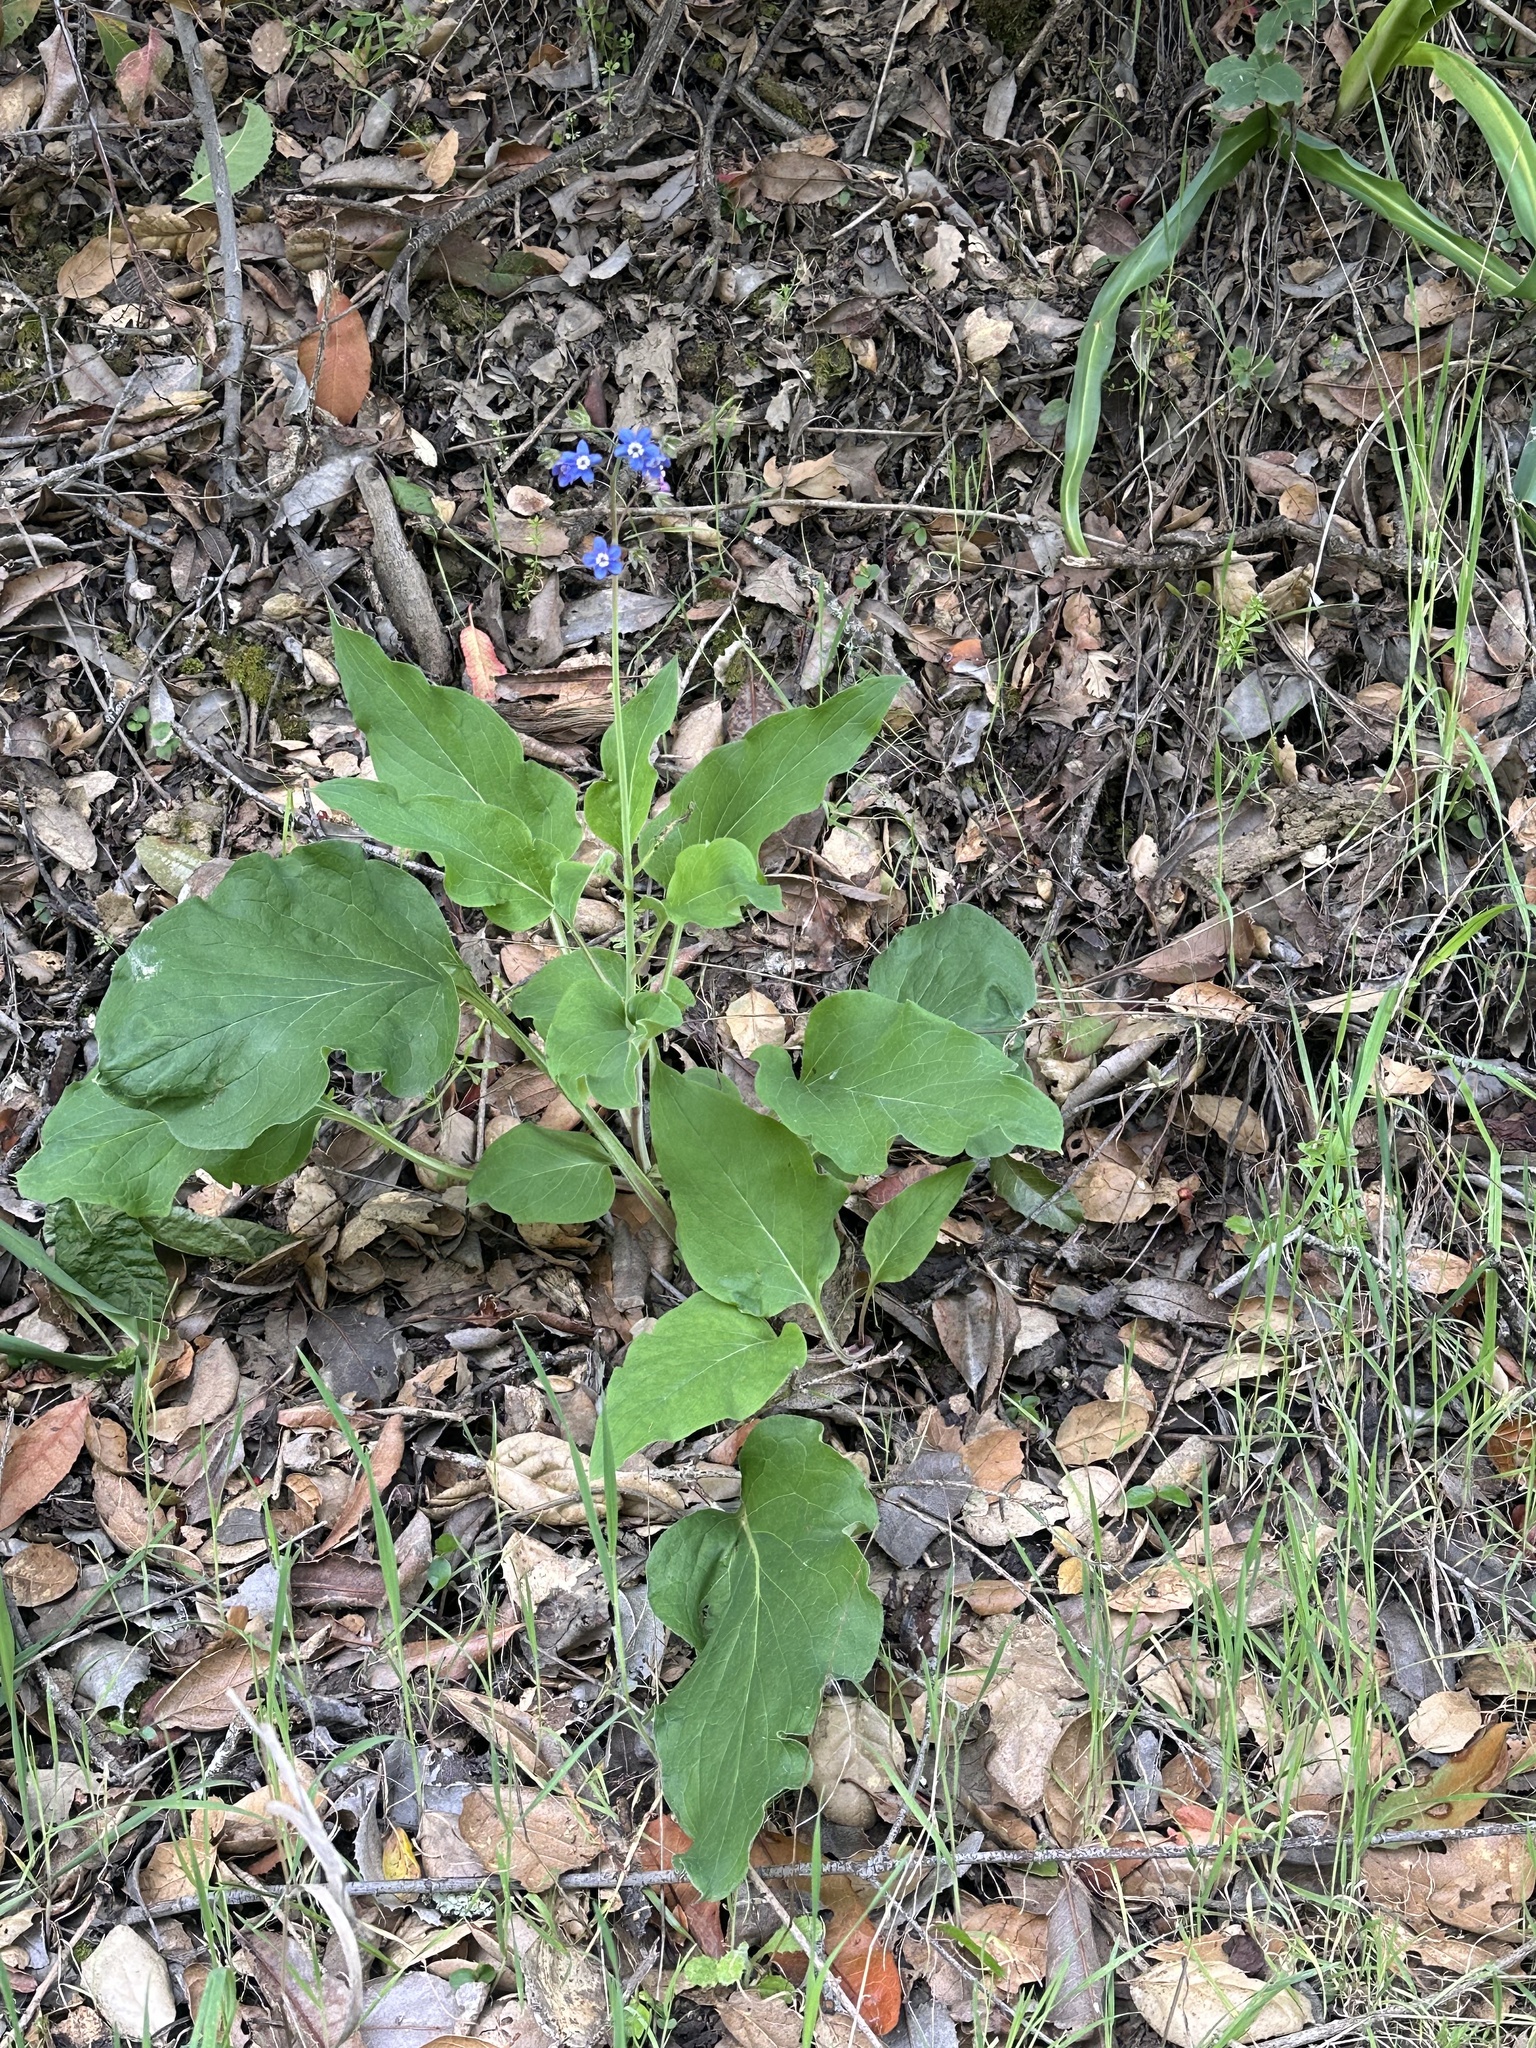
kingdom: Plantae
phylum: Tracheophyta
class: Magnoliopsida
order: Boraginales
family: Boraginaceae
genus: Adelinia
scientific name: Adelinia grande
